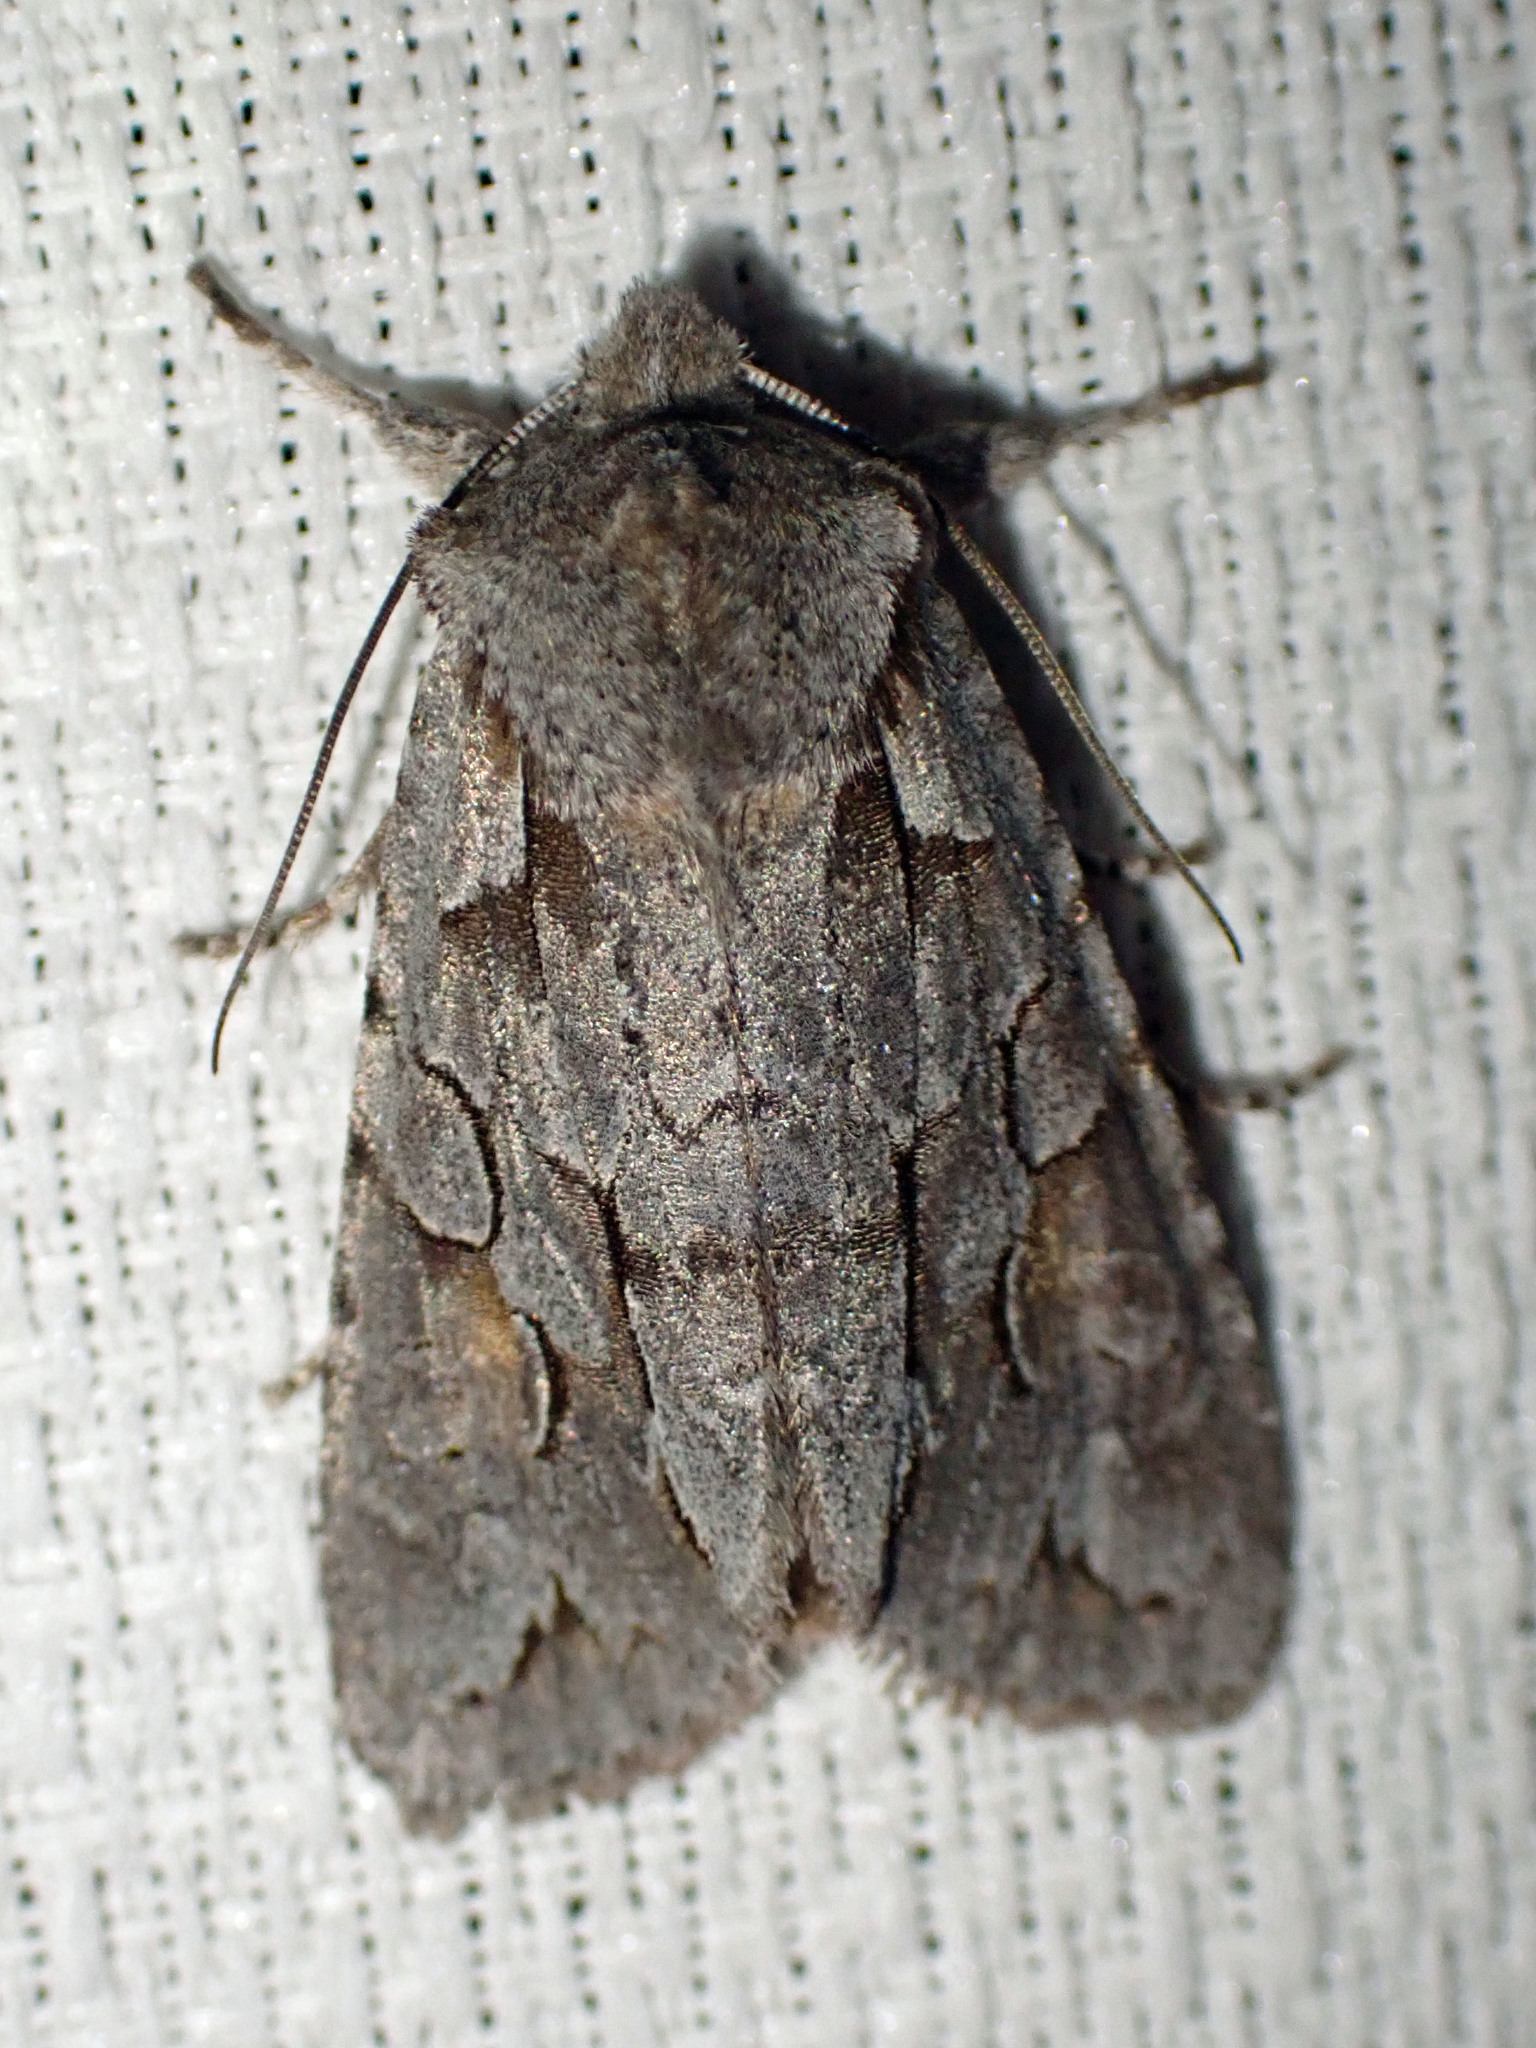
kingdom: Animalia
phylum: Arthropoda
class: Insecta
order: Lepidoptera
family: Noctuidae
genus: Lithophane
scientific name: Lithophane thaxteri
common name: Nonconformist
